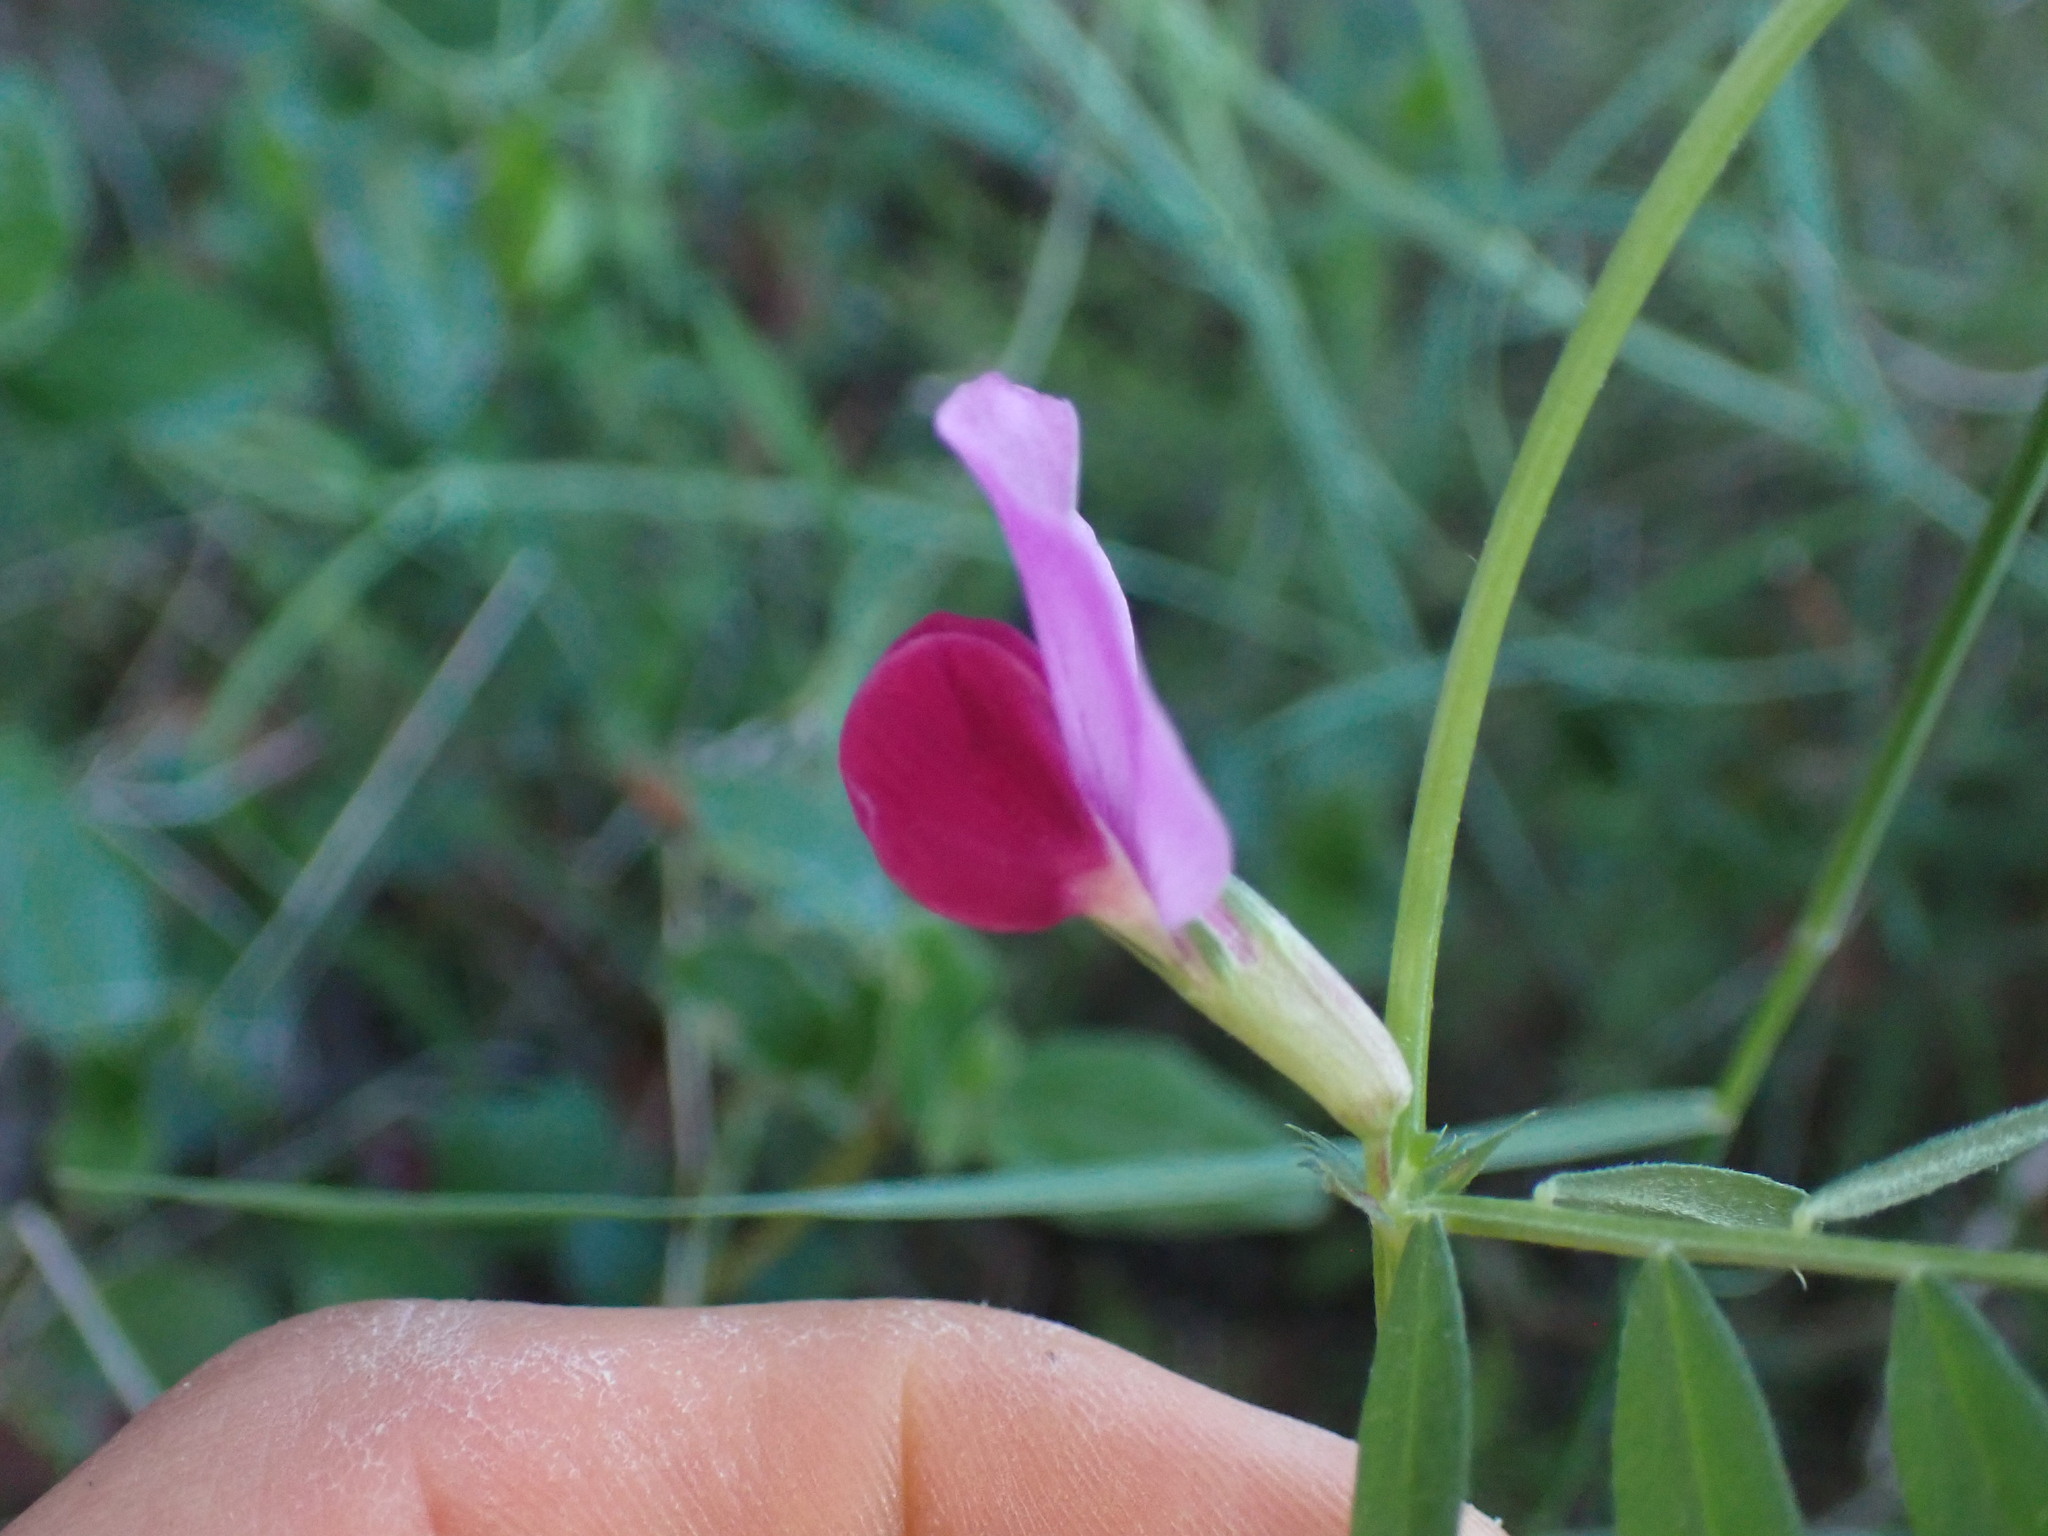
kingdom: Plantae
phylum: Tracheophyta
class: Magnoliopsida
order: Fabales
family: Fabaceae
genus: Vicia
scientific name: Vicia sativa
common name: Garden vetch
